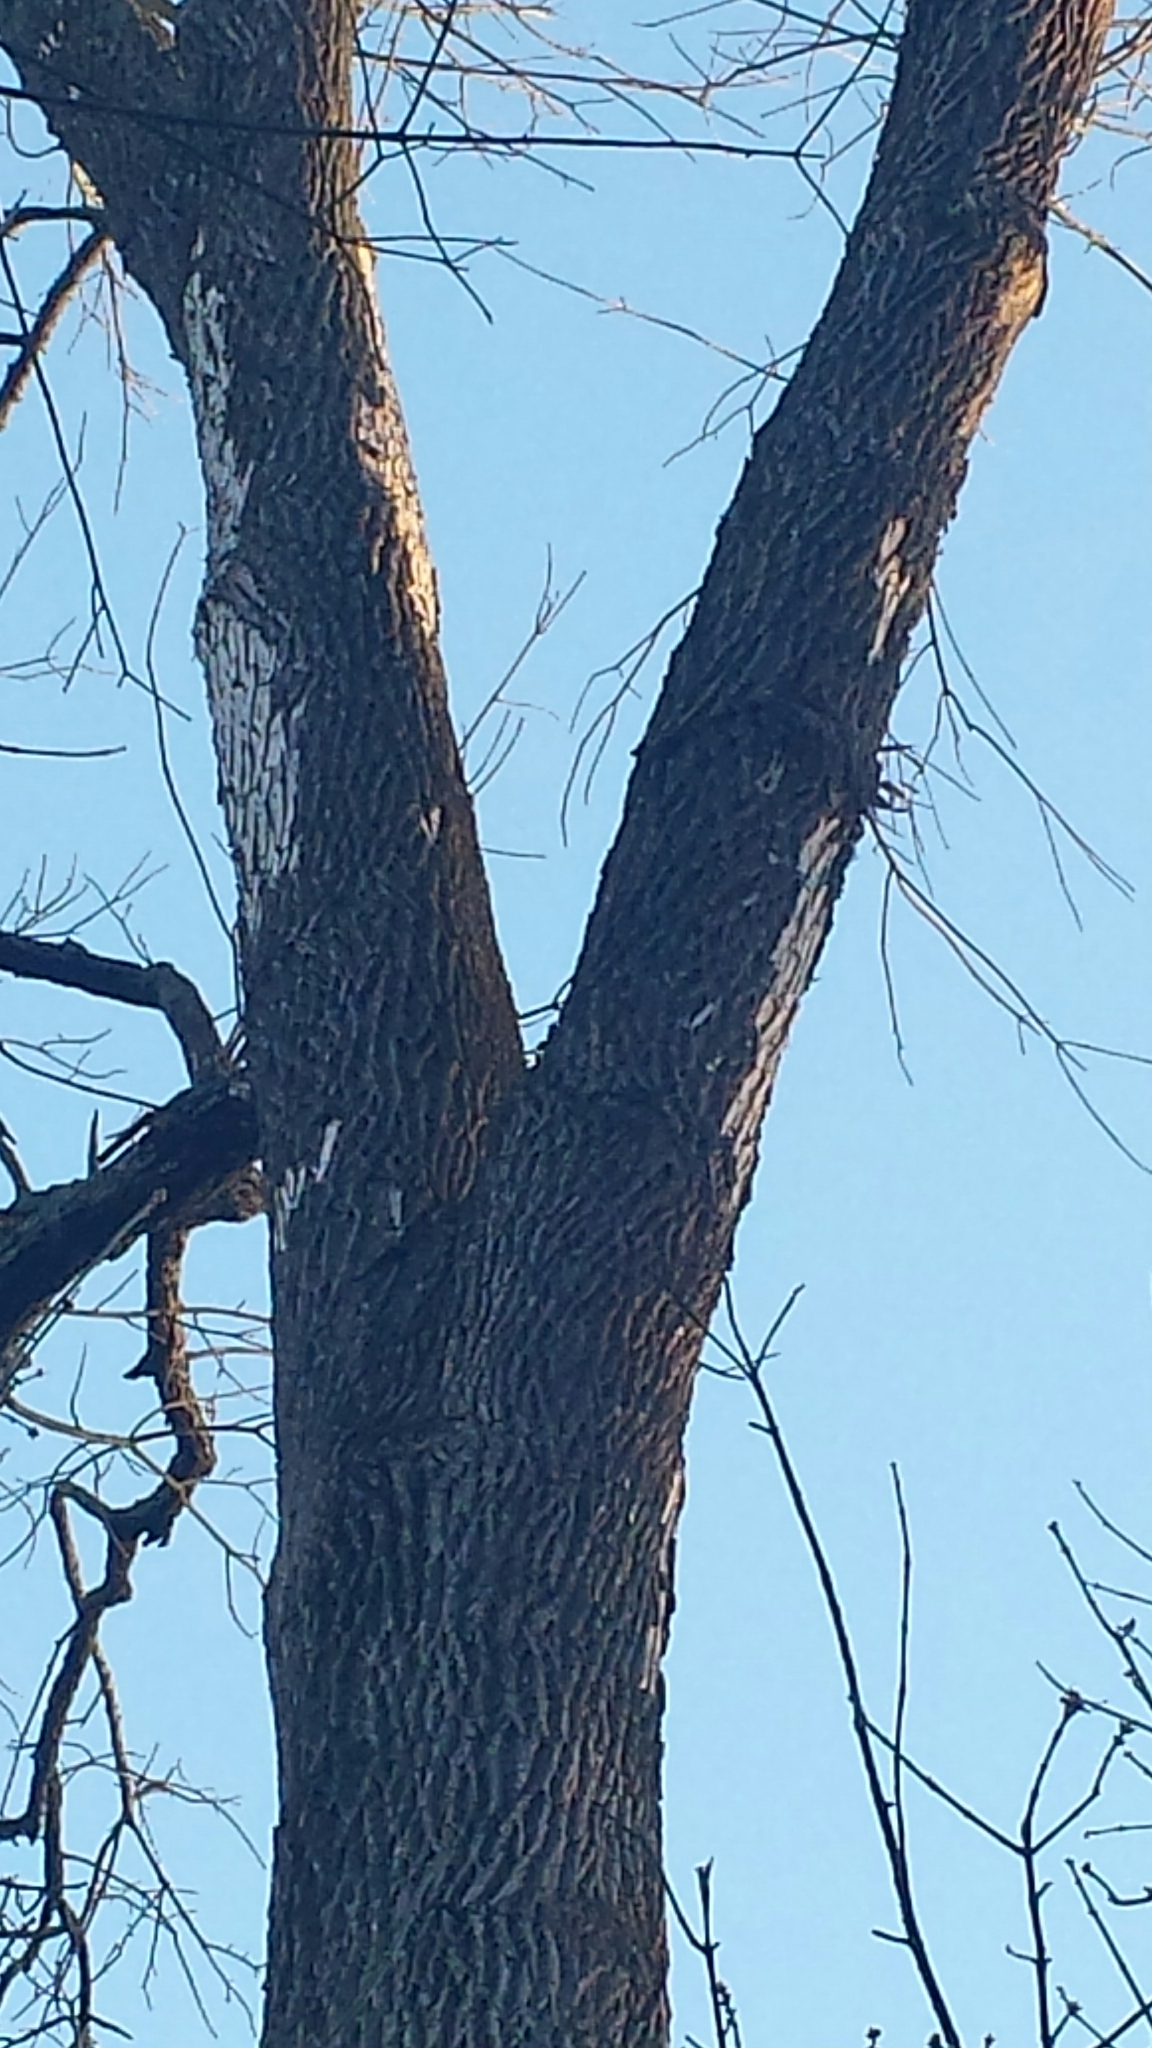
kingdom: Plantae
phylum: Tracheophyta
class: Magnoliopsida
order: Lamiales
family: Oleaceae
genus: Fraxinus
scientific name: Fraxinus americana
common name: White ash
